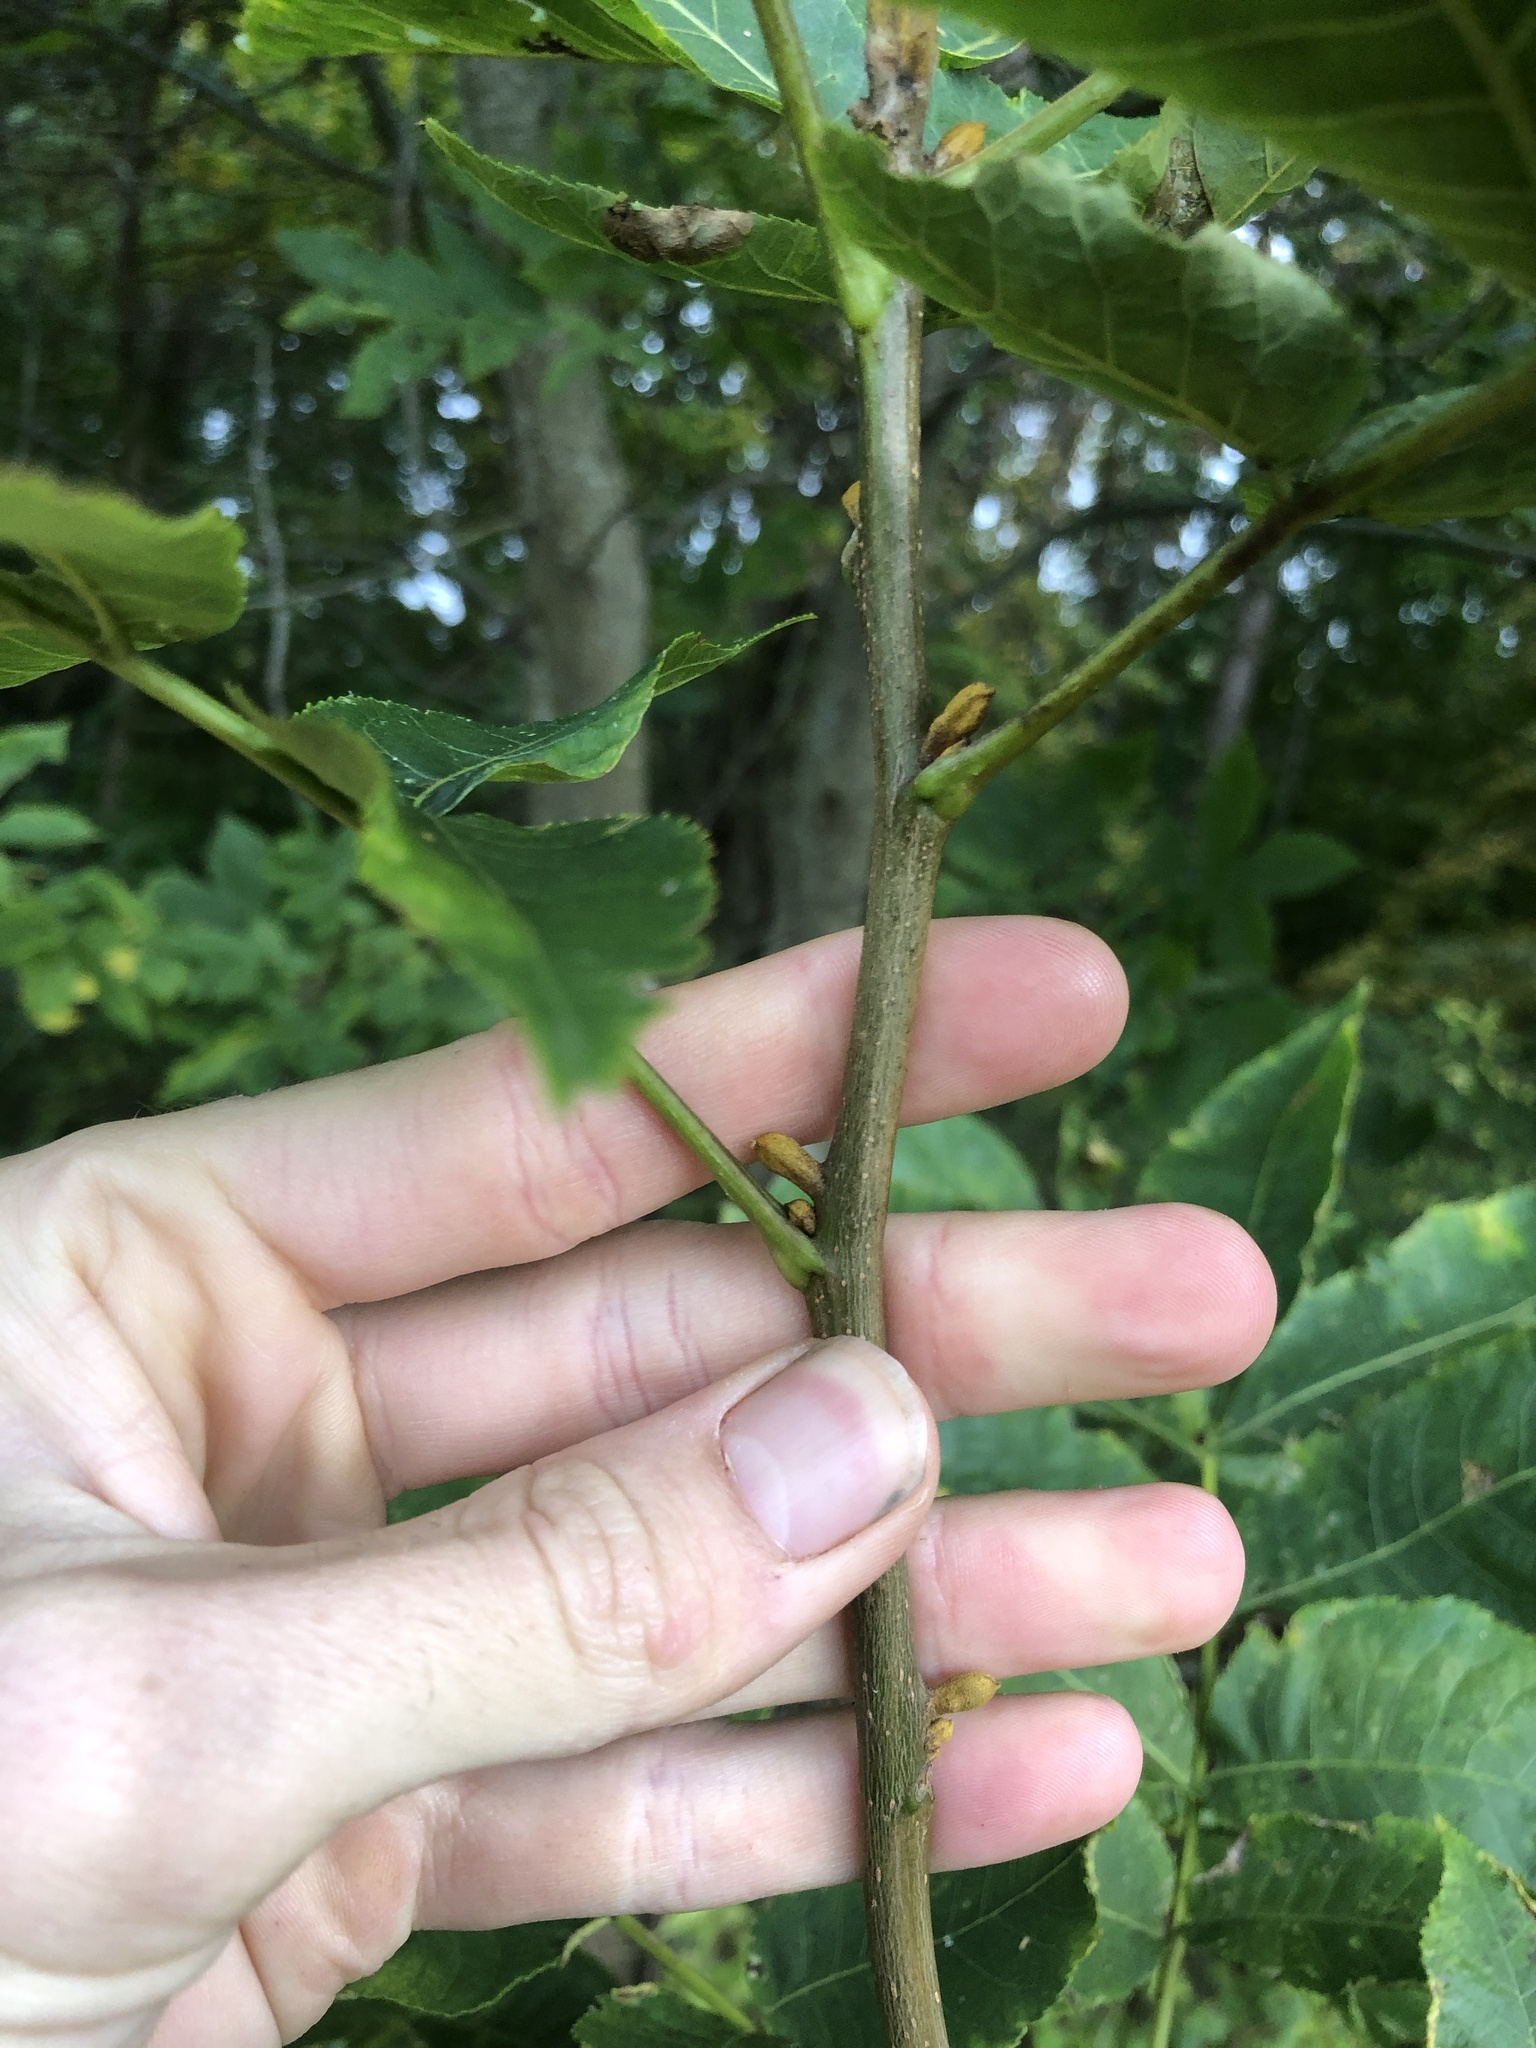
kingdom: Plantae
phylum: Tracheophyta
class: Magnoliopsida
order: Fagales
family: Juglandaceae
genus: Carya
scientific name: Carya cordiformis
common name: Bitternut hickory
